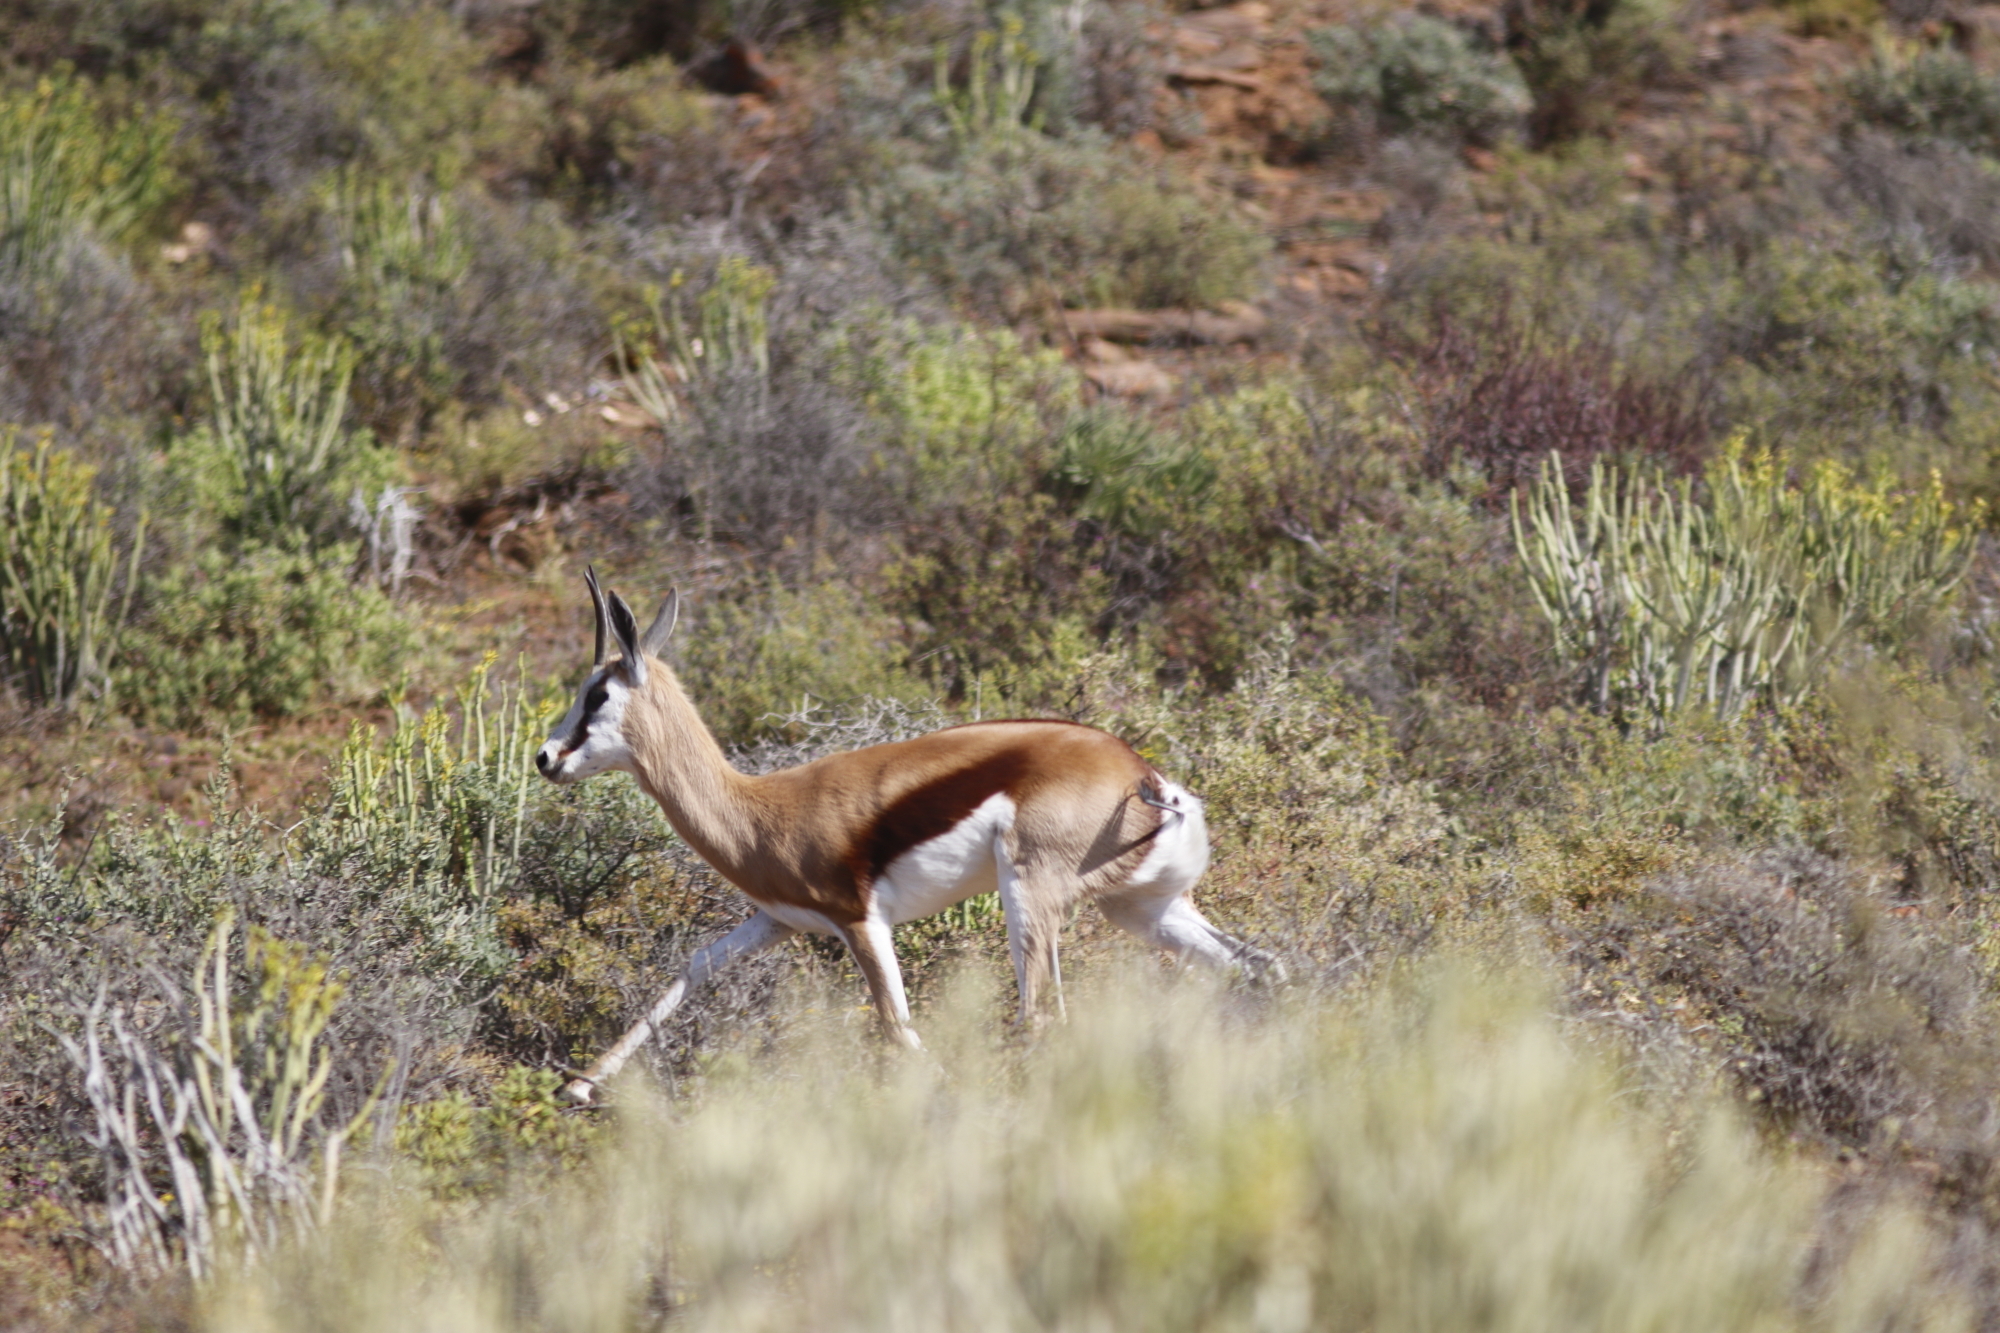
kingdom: Animalia
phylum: Chordata
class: Mammalia
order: Artiodactyla
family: Bovidae
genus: Antidorcas
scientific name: Antidorcas marsupialis
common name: Springbok
